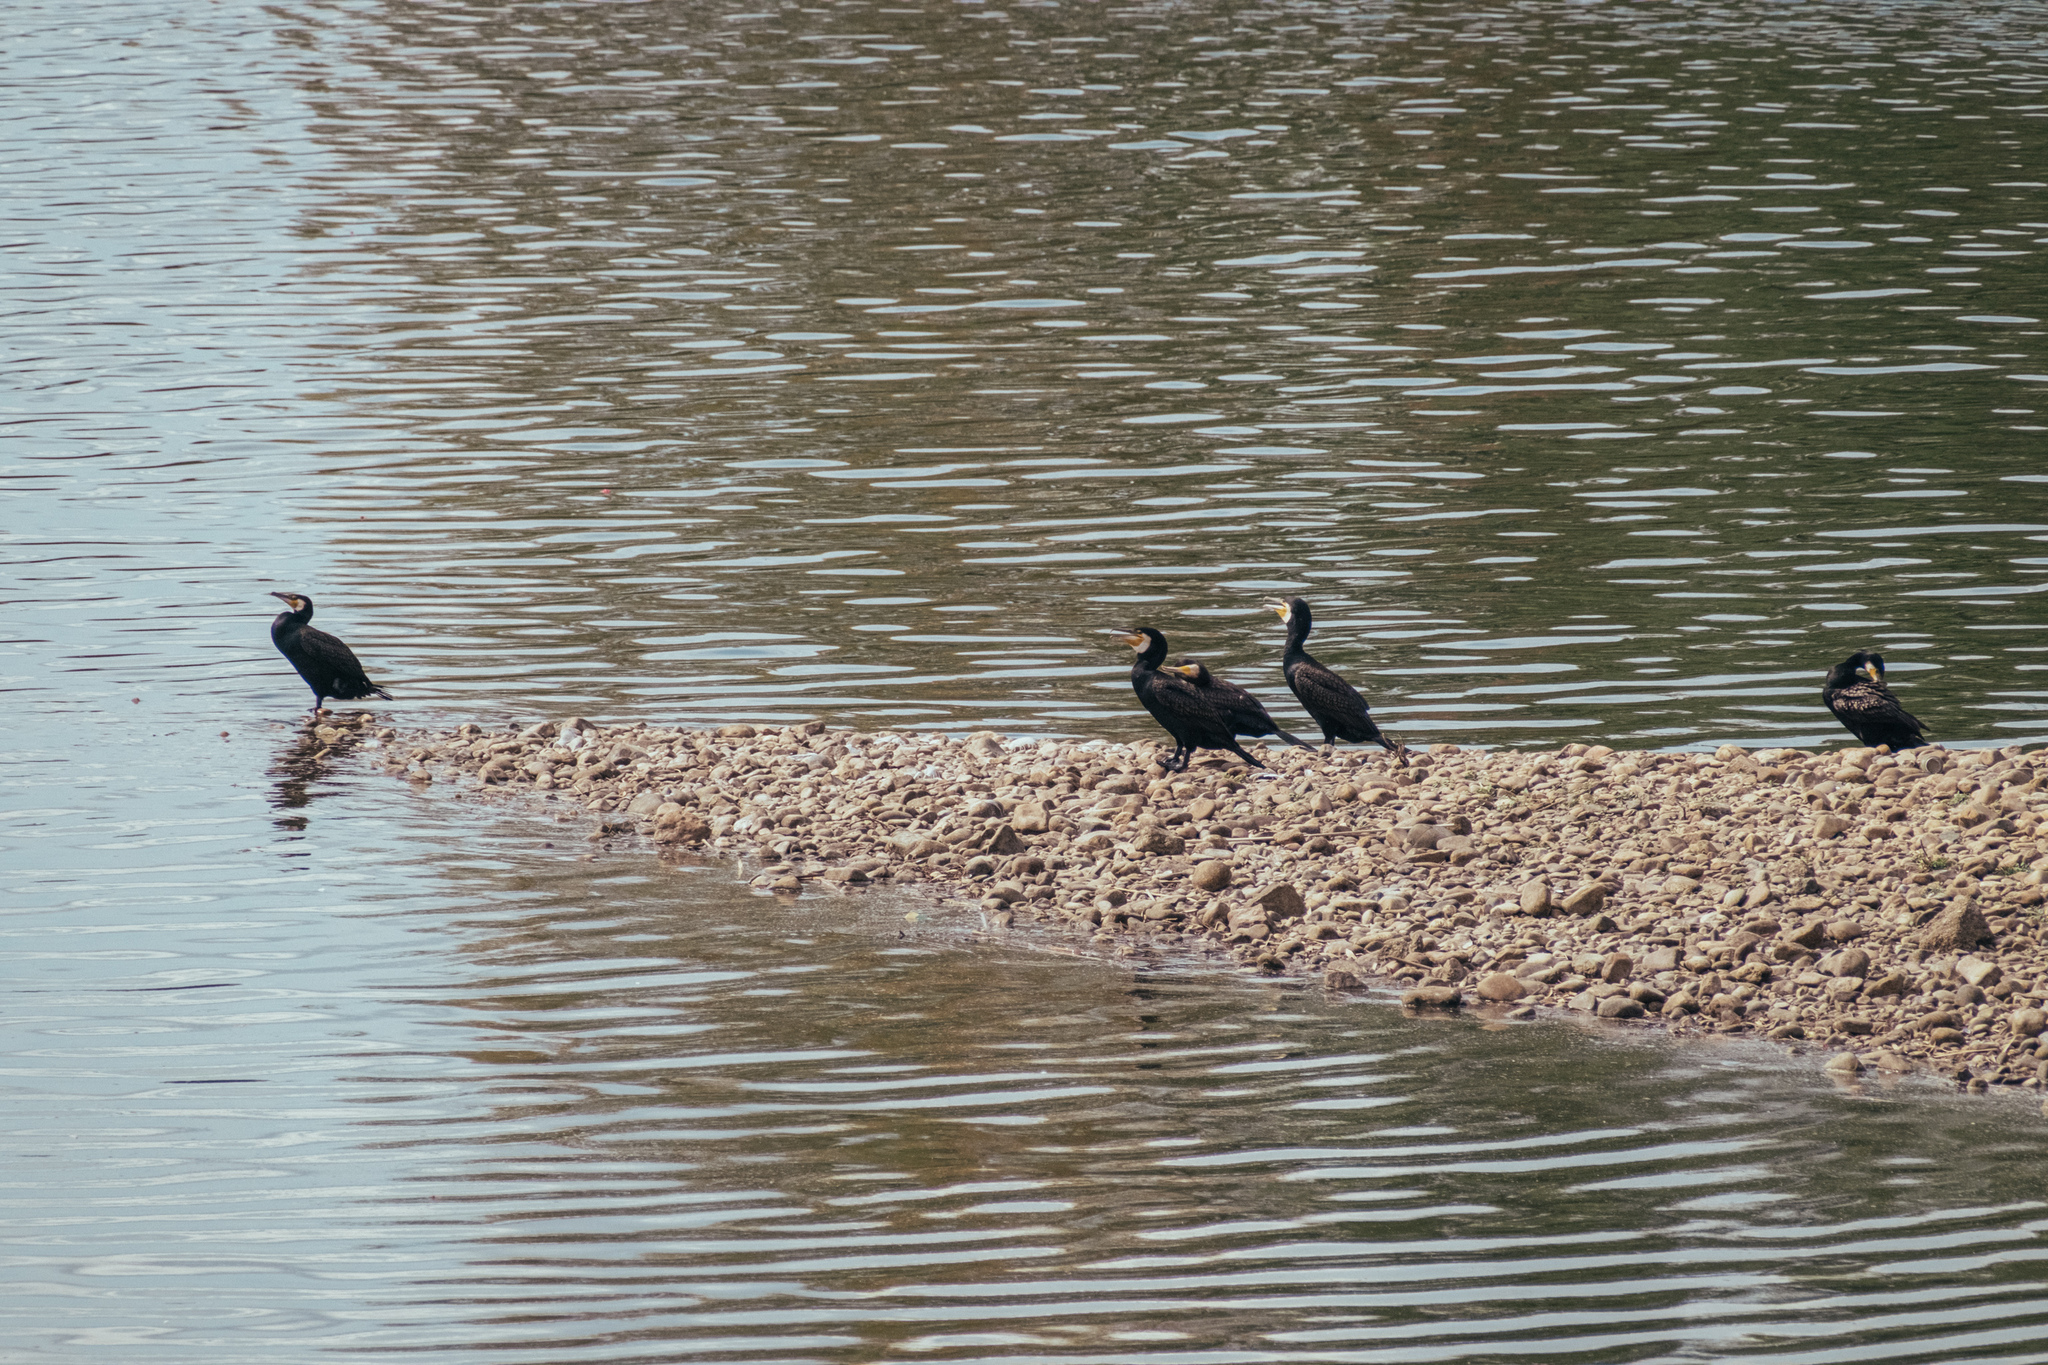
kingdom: Animalia
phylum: Chordata
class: Aves
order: Suliformes
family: Phalacrocoracidae
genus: Phalacrocorax
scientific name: Phalacrocorax carbo
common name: Great cormorant
